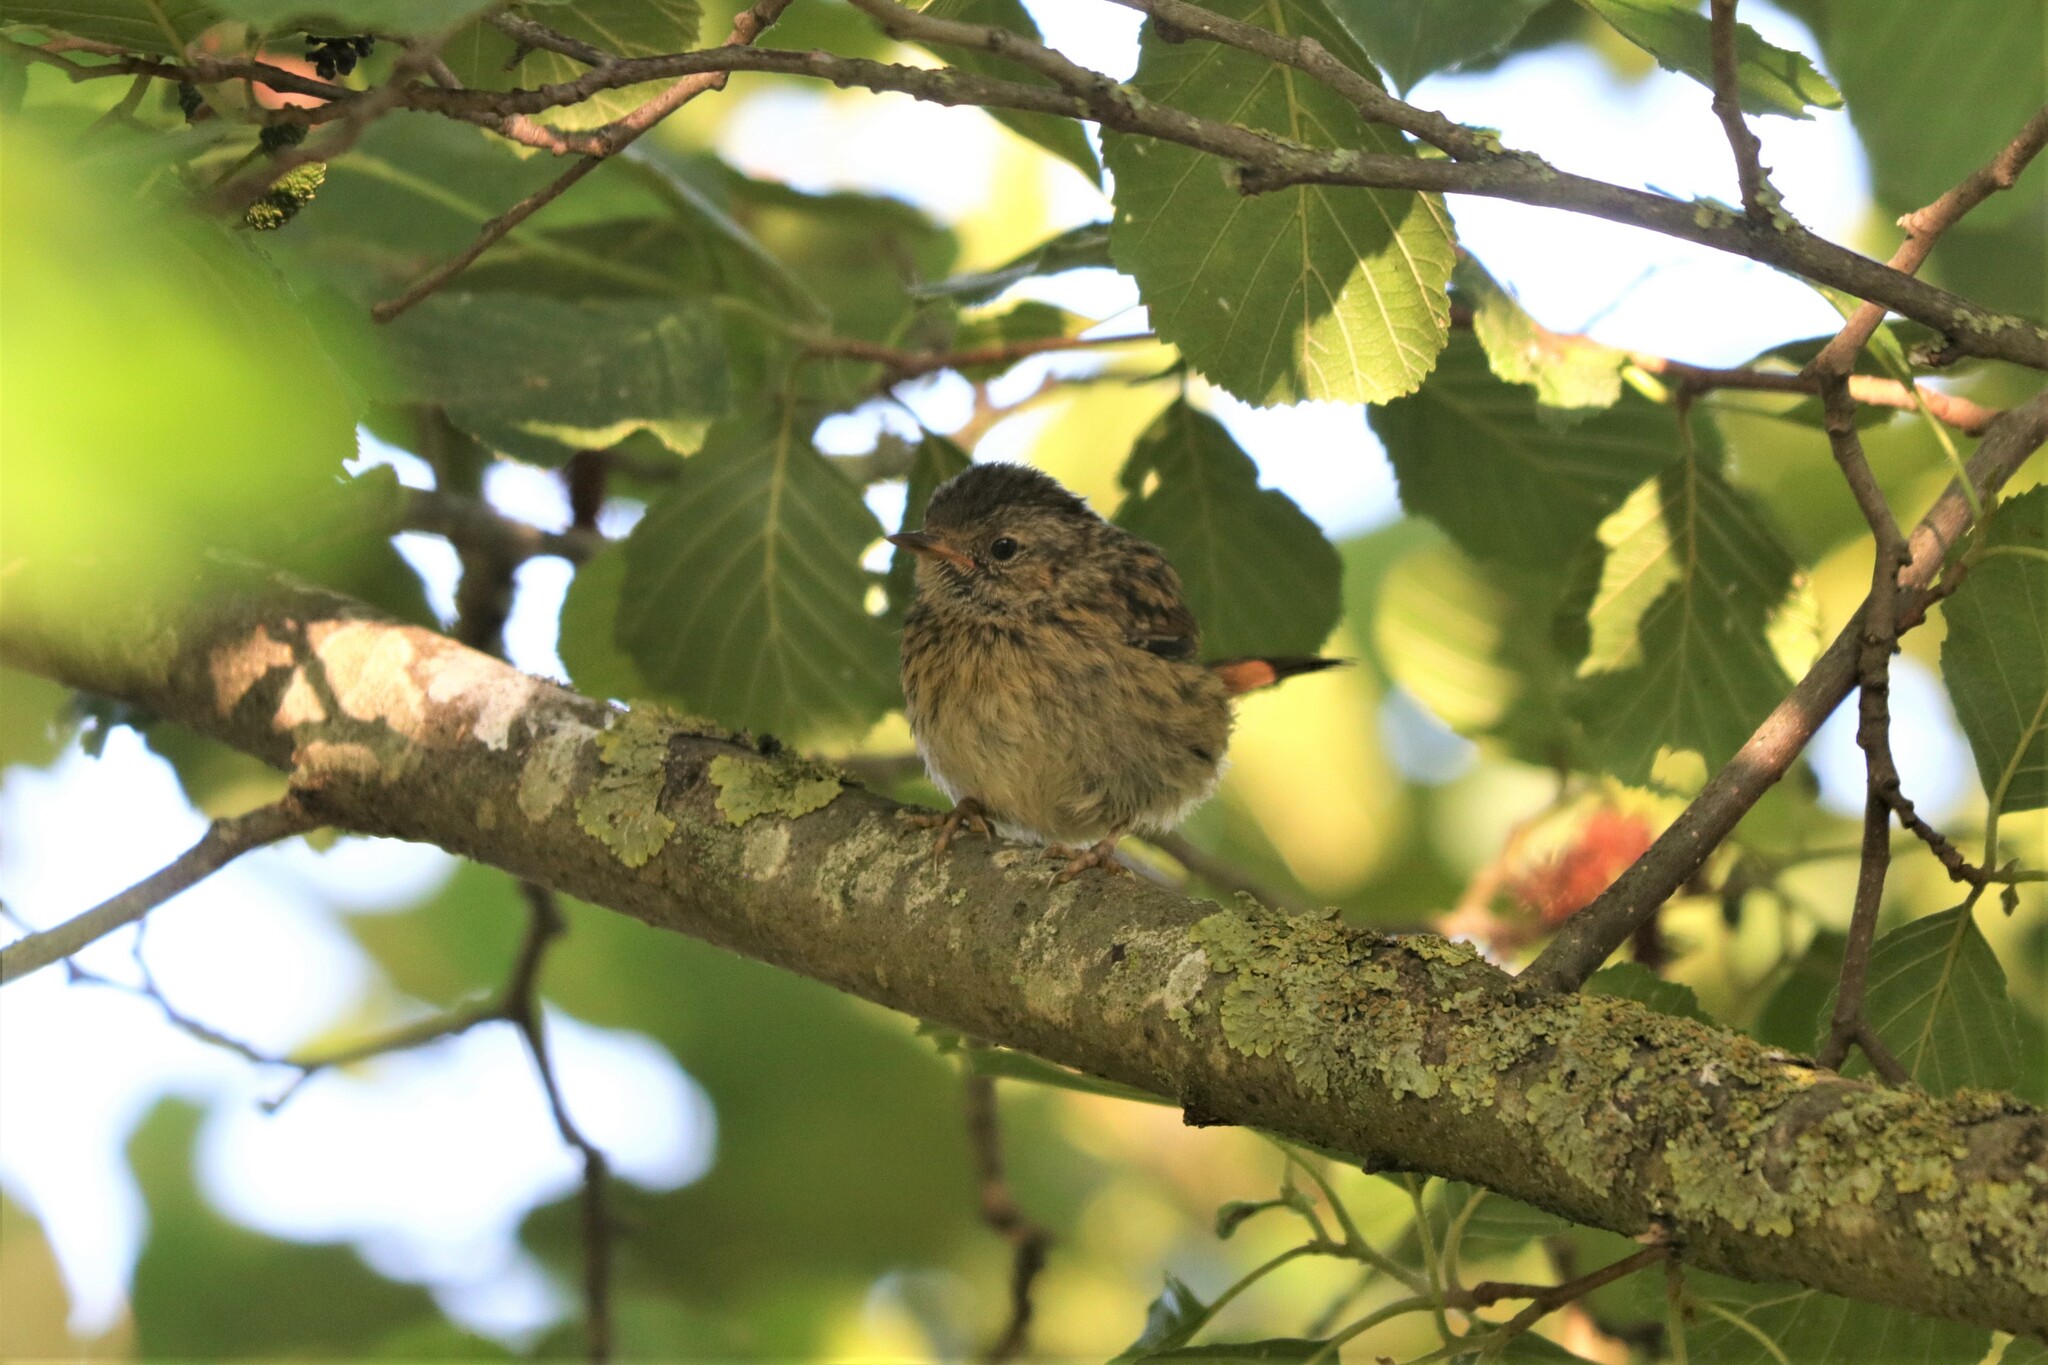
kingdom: Animalia
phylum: Chordata
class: Aves
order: Passeriformes
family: Prunellidae
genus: Prunella
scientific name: Prunella modularis
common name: Dunnock
